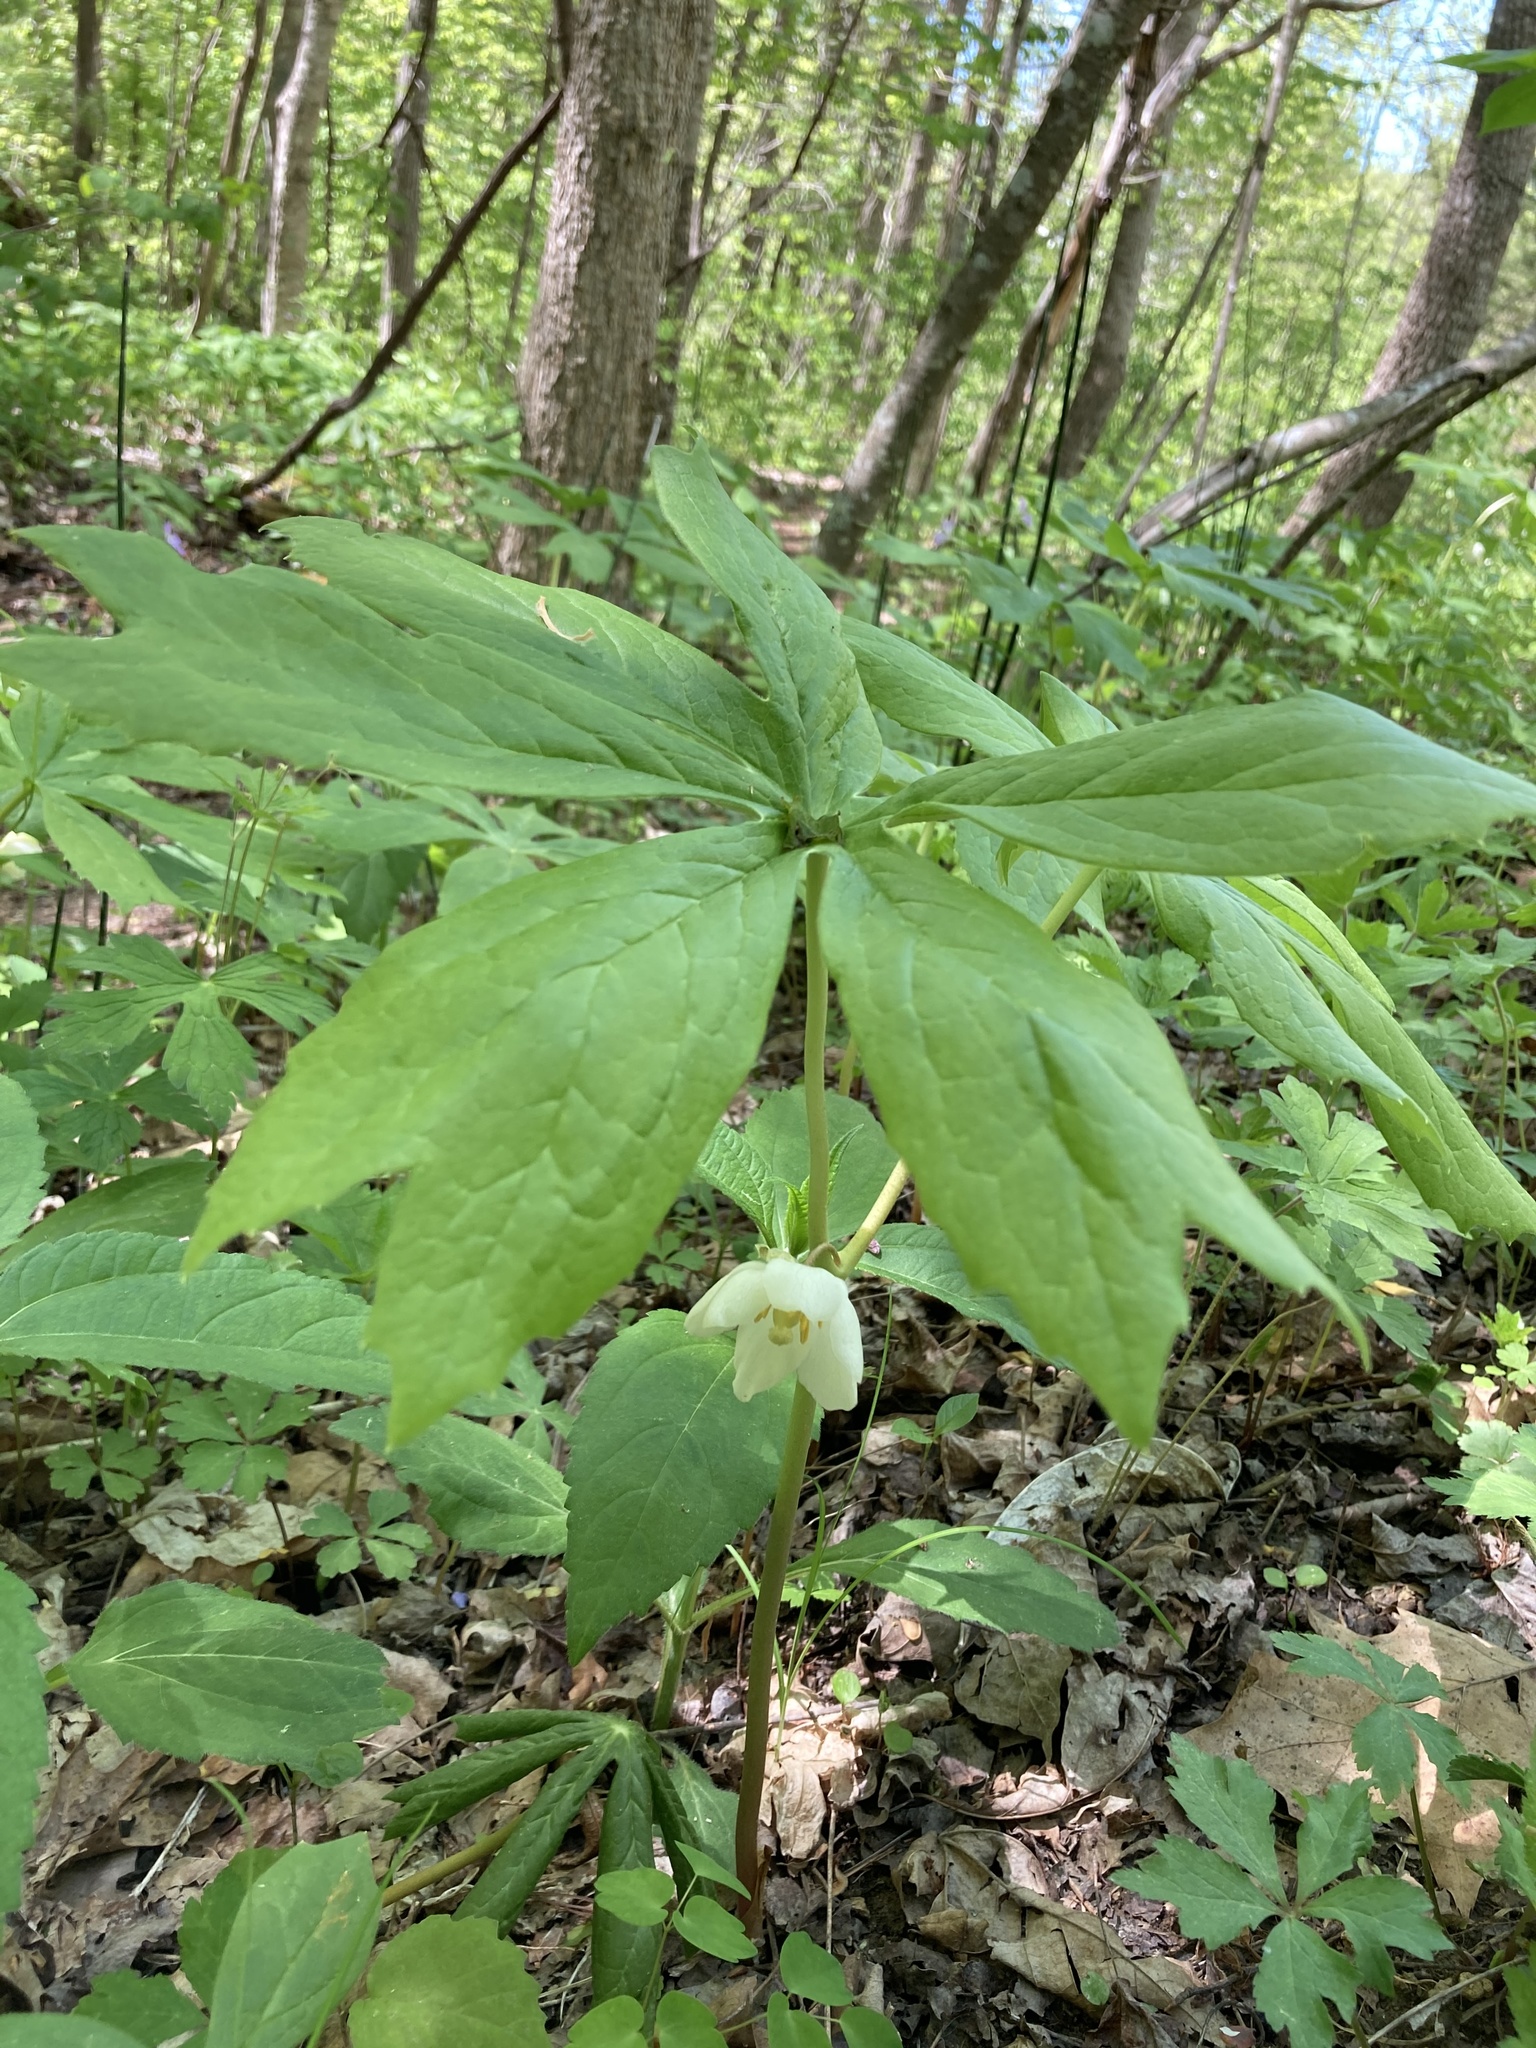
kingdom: Plantae
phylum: Tracheophyta
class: Magnoliopsida
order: Ranunculales
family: Berberidaceae
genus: Podophyllum
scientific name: Podophyllum peltatum
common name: Wild mandrake
